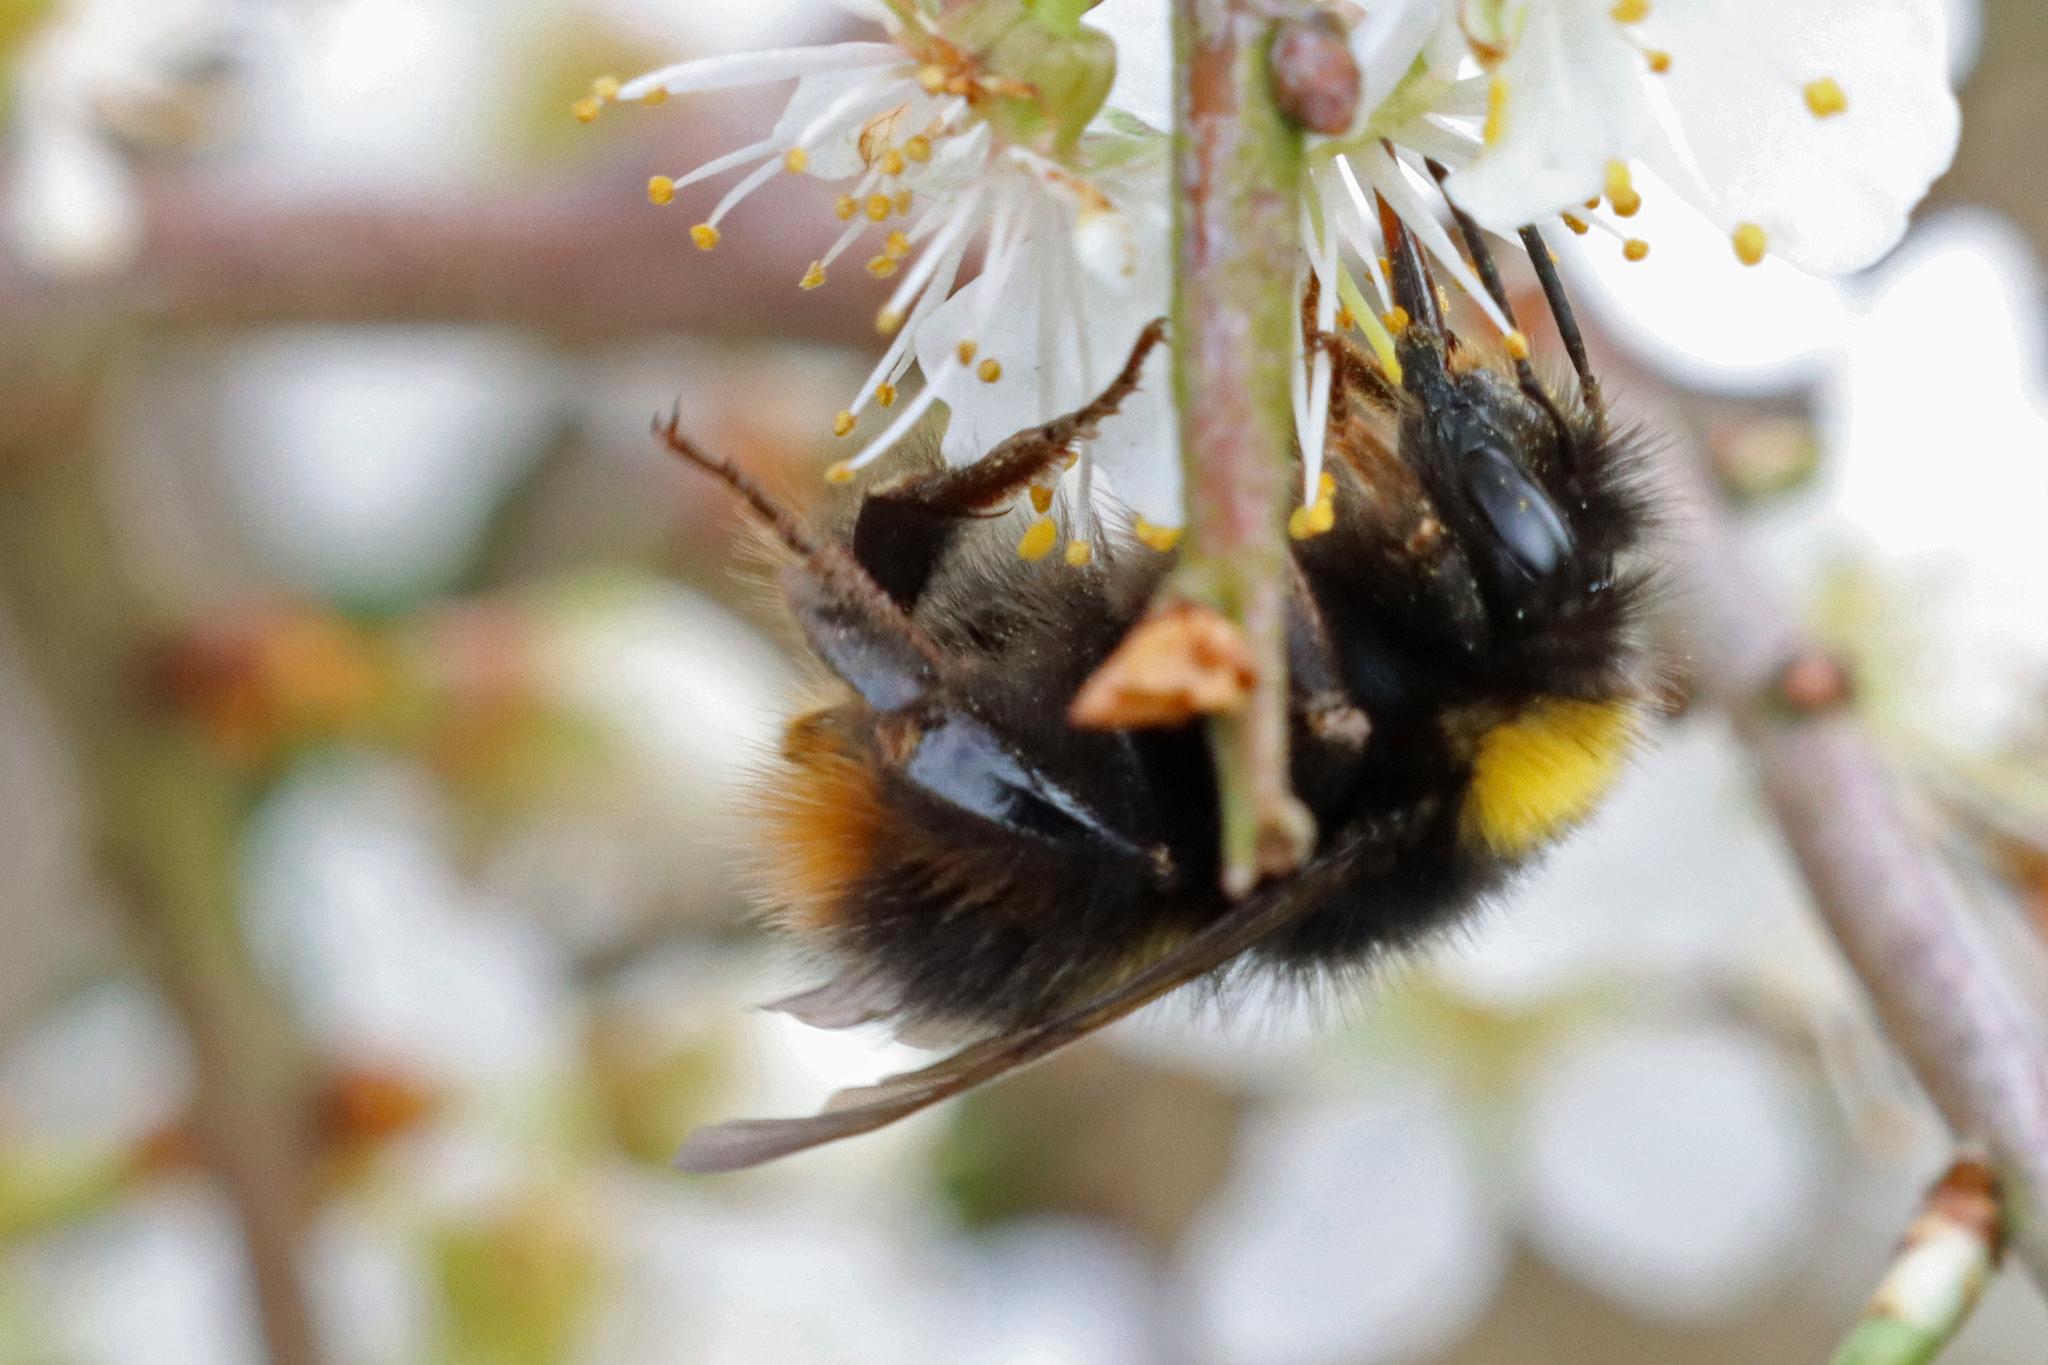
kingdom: Animalia
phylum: Arthropoda
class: Insecta
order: Hymenoptera
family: Apidae
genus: Bombus
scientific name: Bombus pratorum
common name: Early humble-bee
